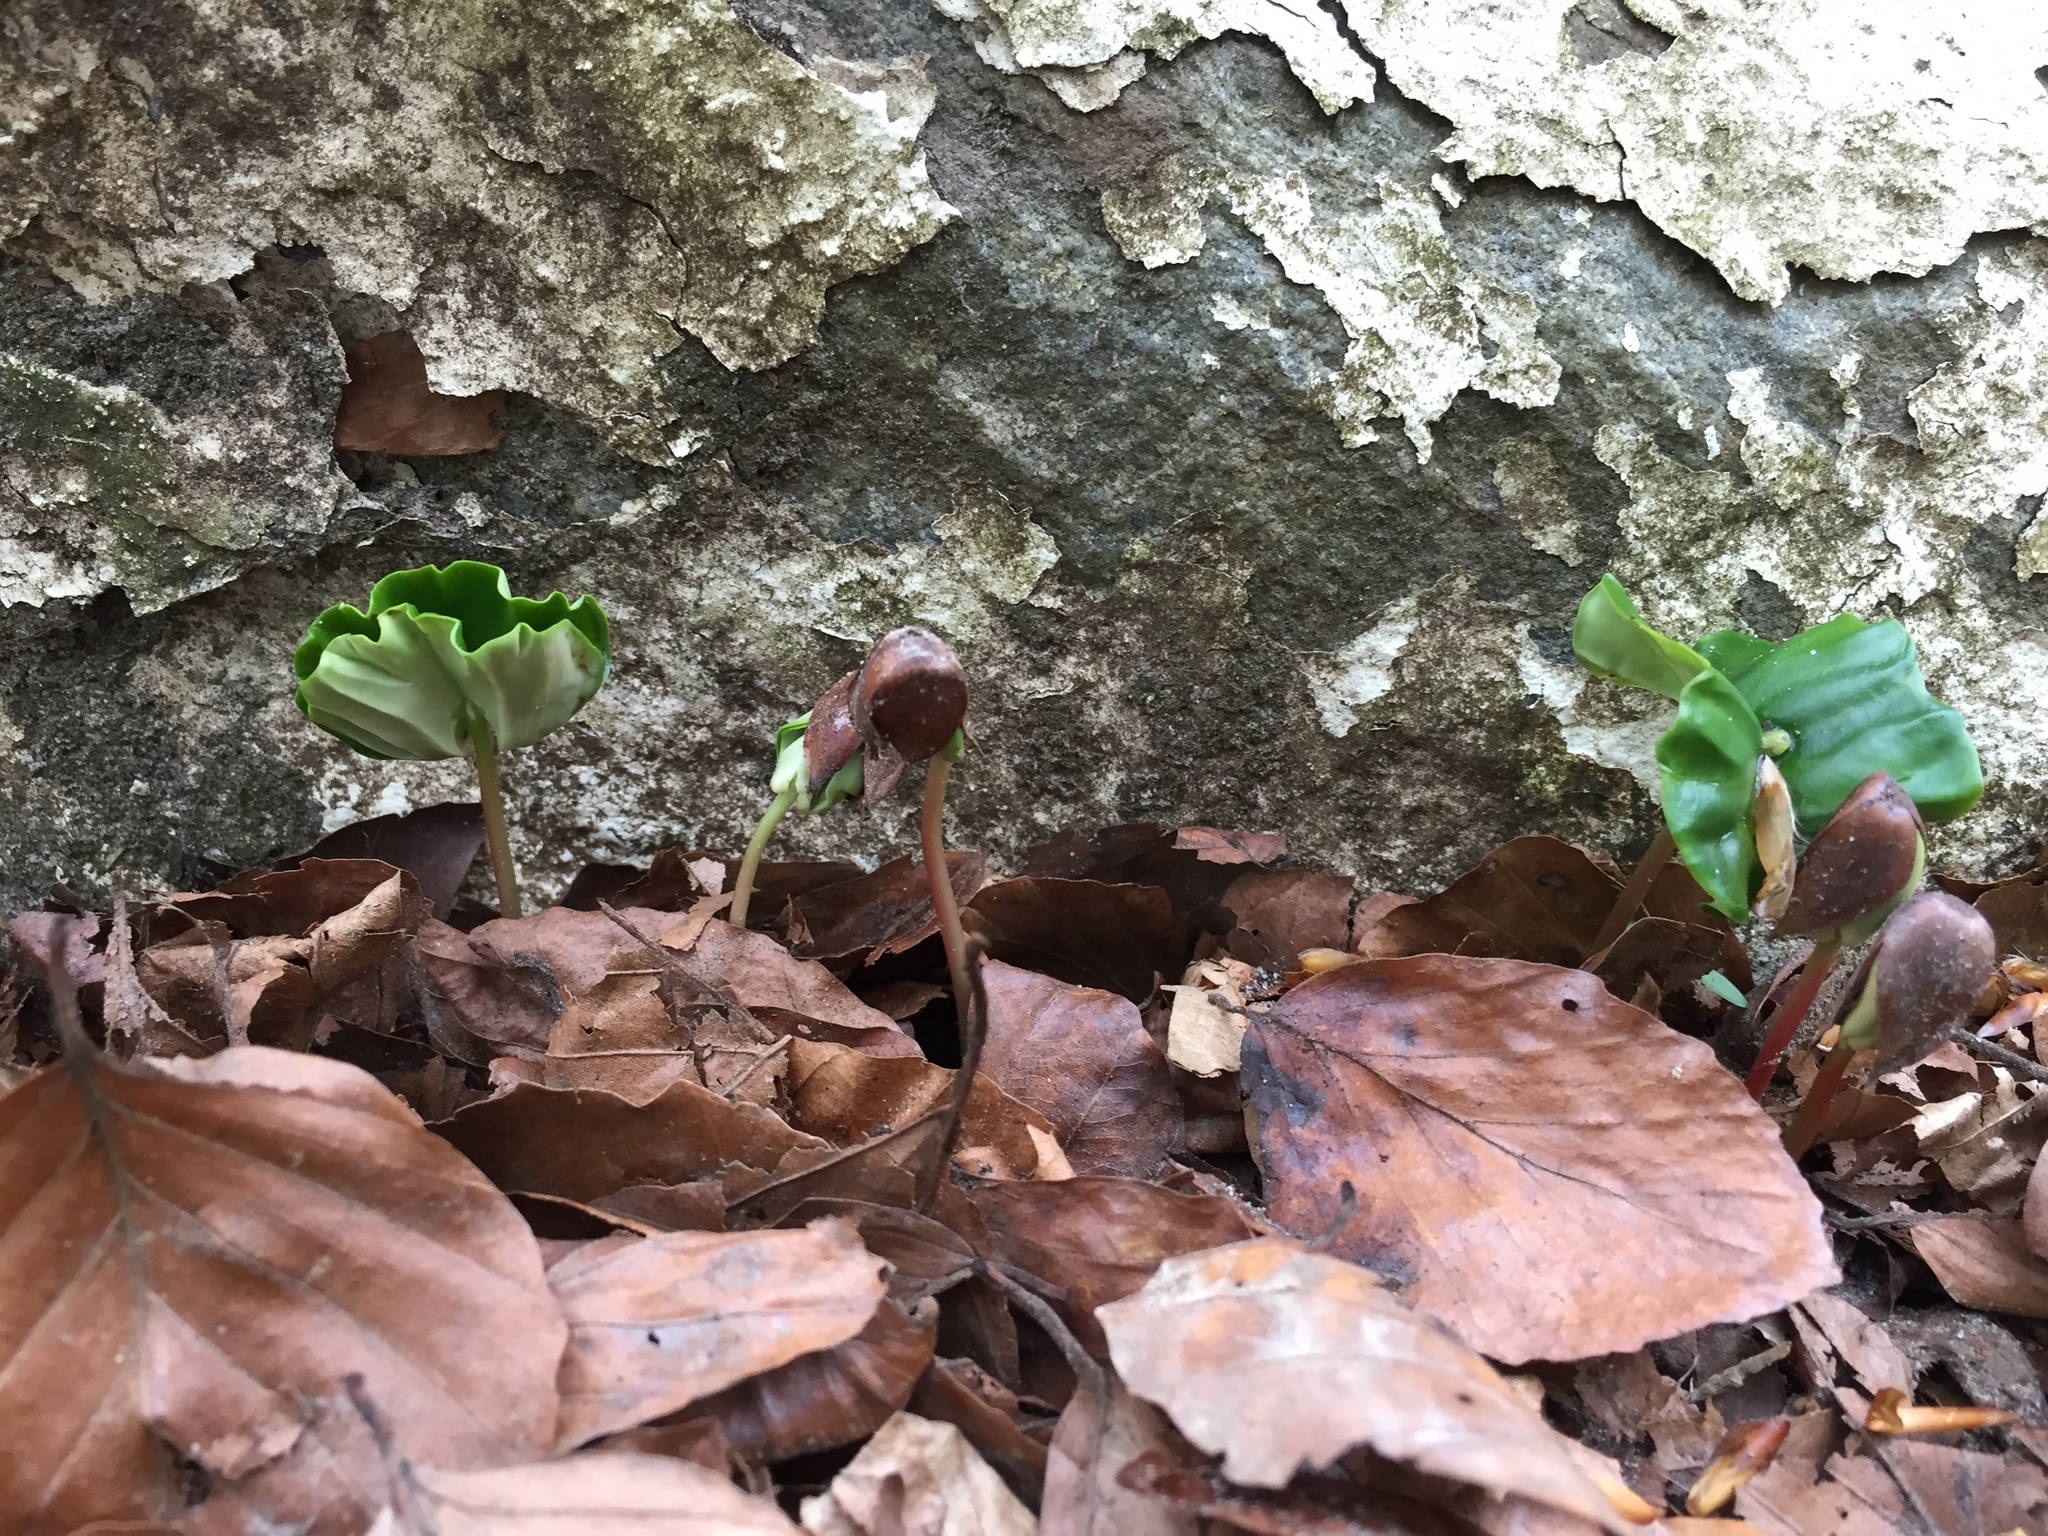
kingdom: Plantae
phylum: Tracheophyta
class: Magnoliopsida
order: Fagales
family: Fagaceae
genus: Fagus
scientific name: Fagus sylvatica
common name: Beech
